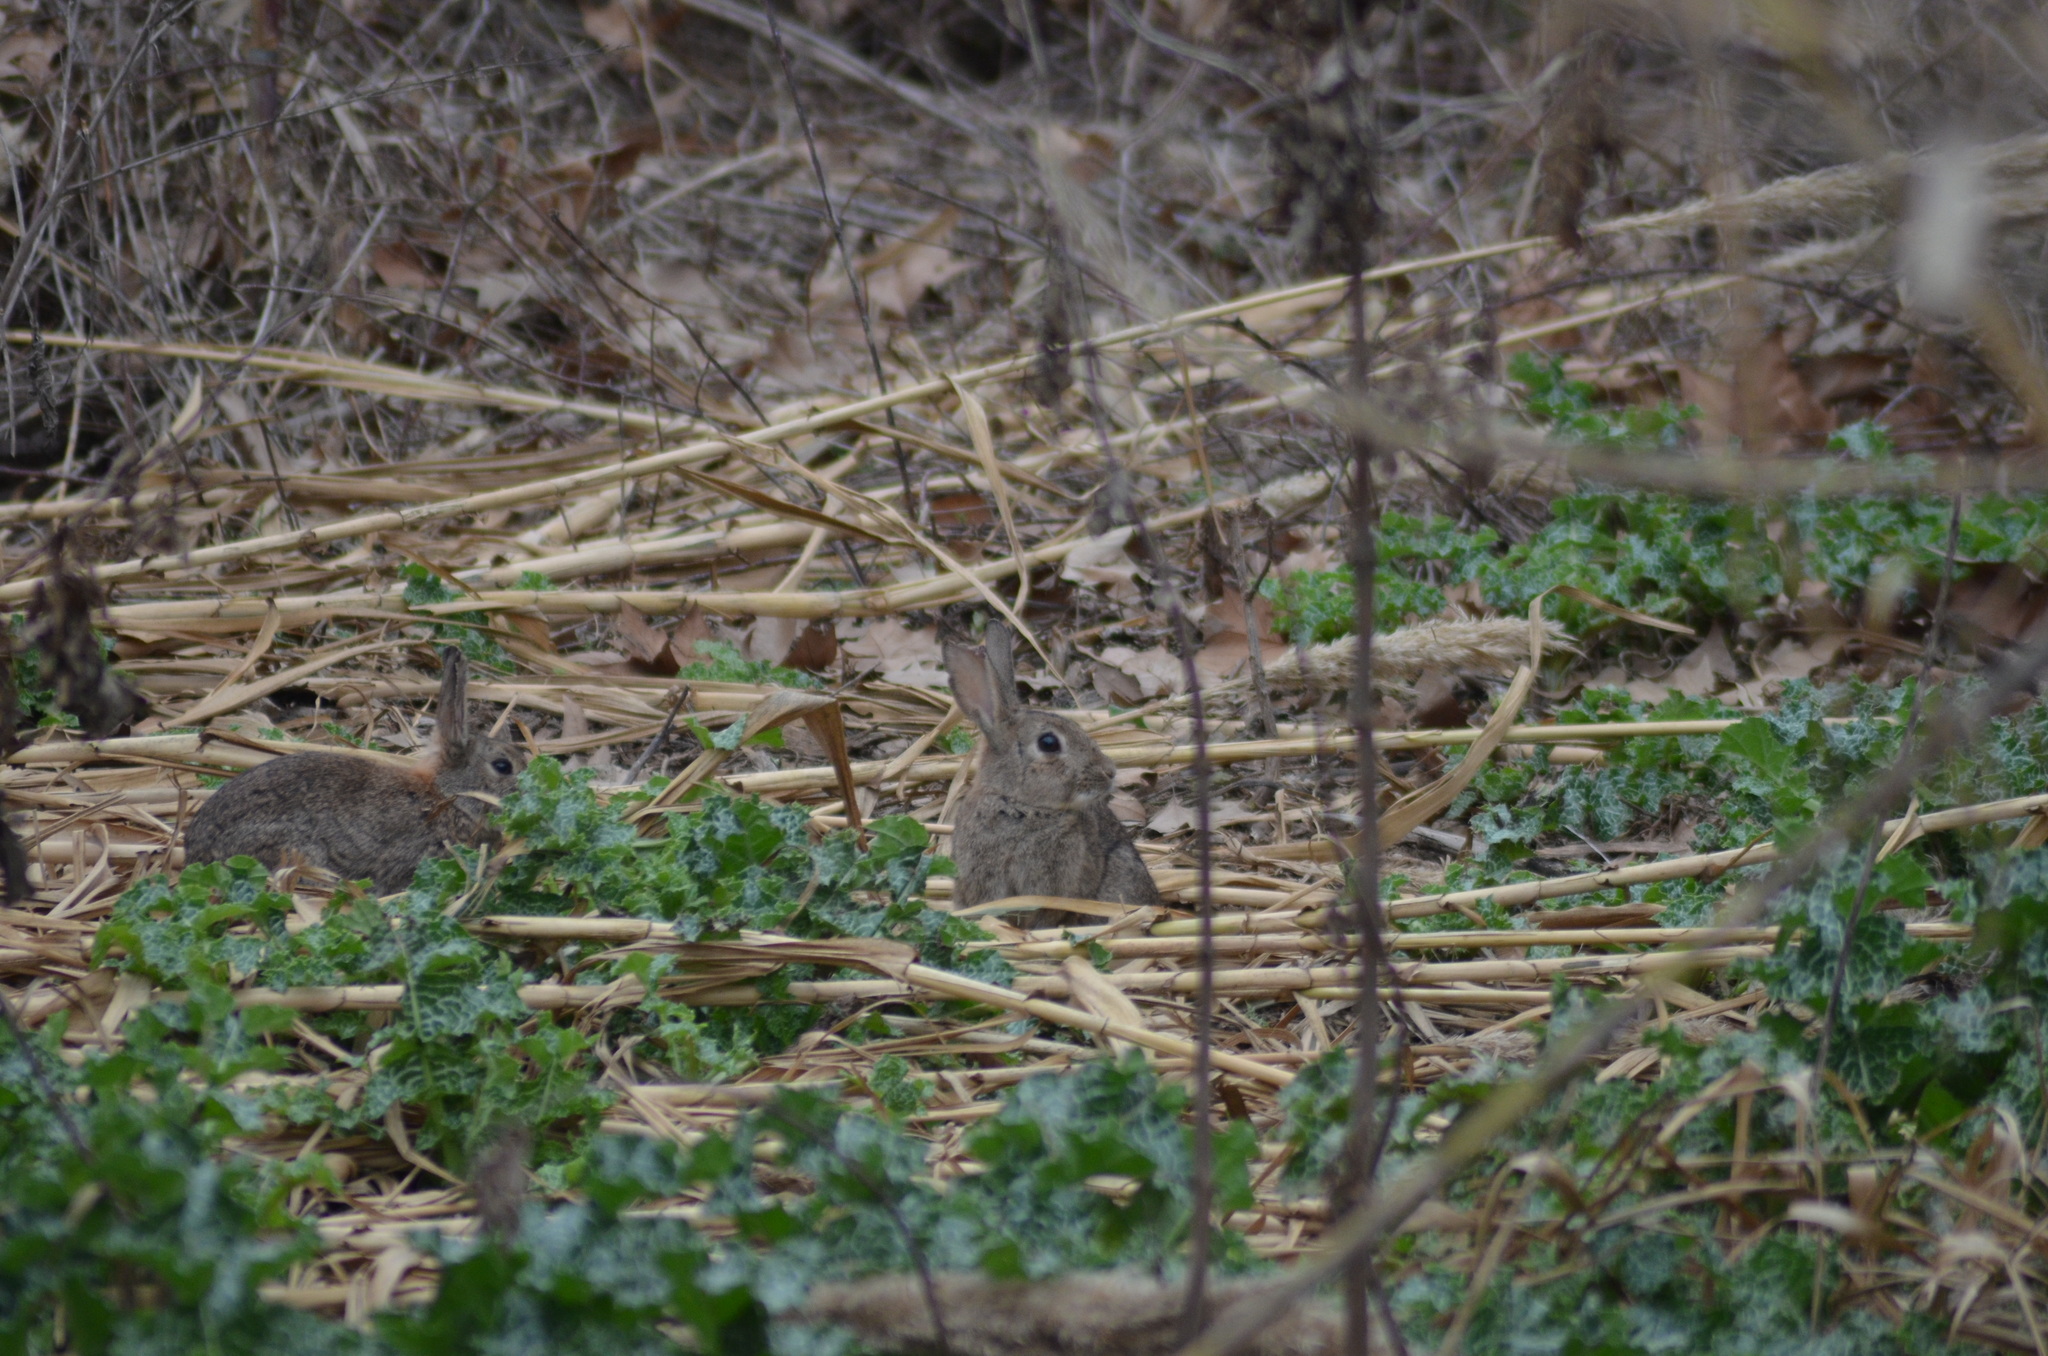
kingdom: Animalia
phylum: Chordata
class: Mammalia
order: Lagomorpha
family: Leporidae
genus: Oryctolagus
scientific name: Oryctolagus cuniculus
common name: European rabbit
